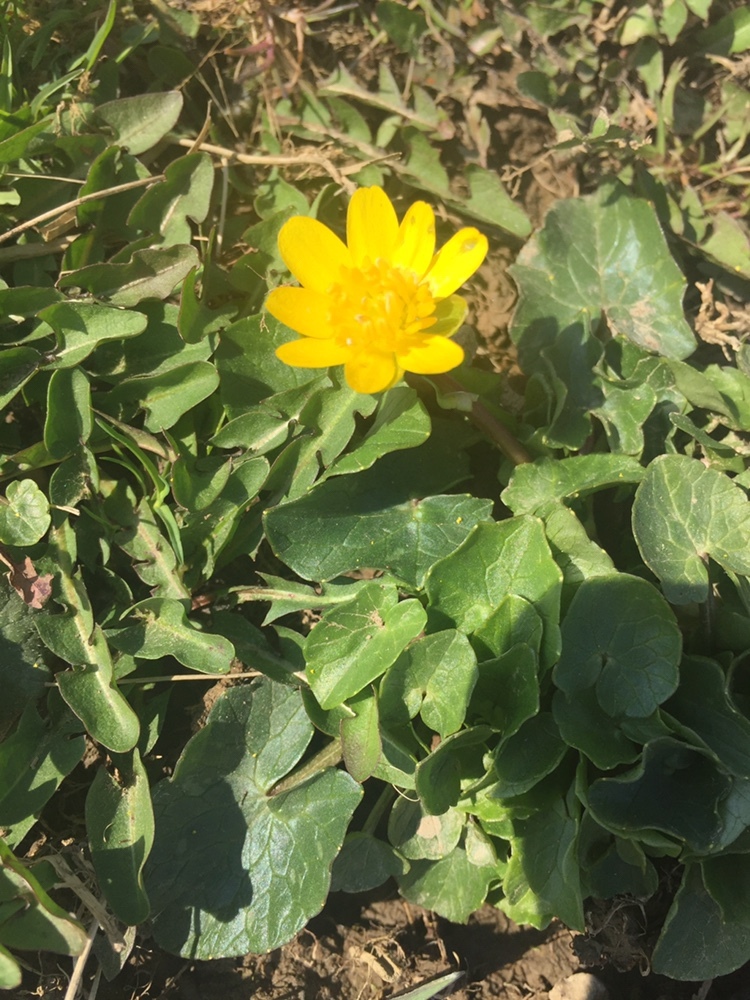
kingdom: Plantae
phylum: Tracheophyta
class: Magnoliopsida
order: Ranunculales
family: Ranunculaceae
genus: Ficaria
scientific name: Ficaria verna
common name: Lesser celandine
